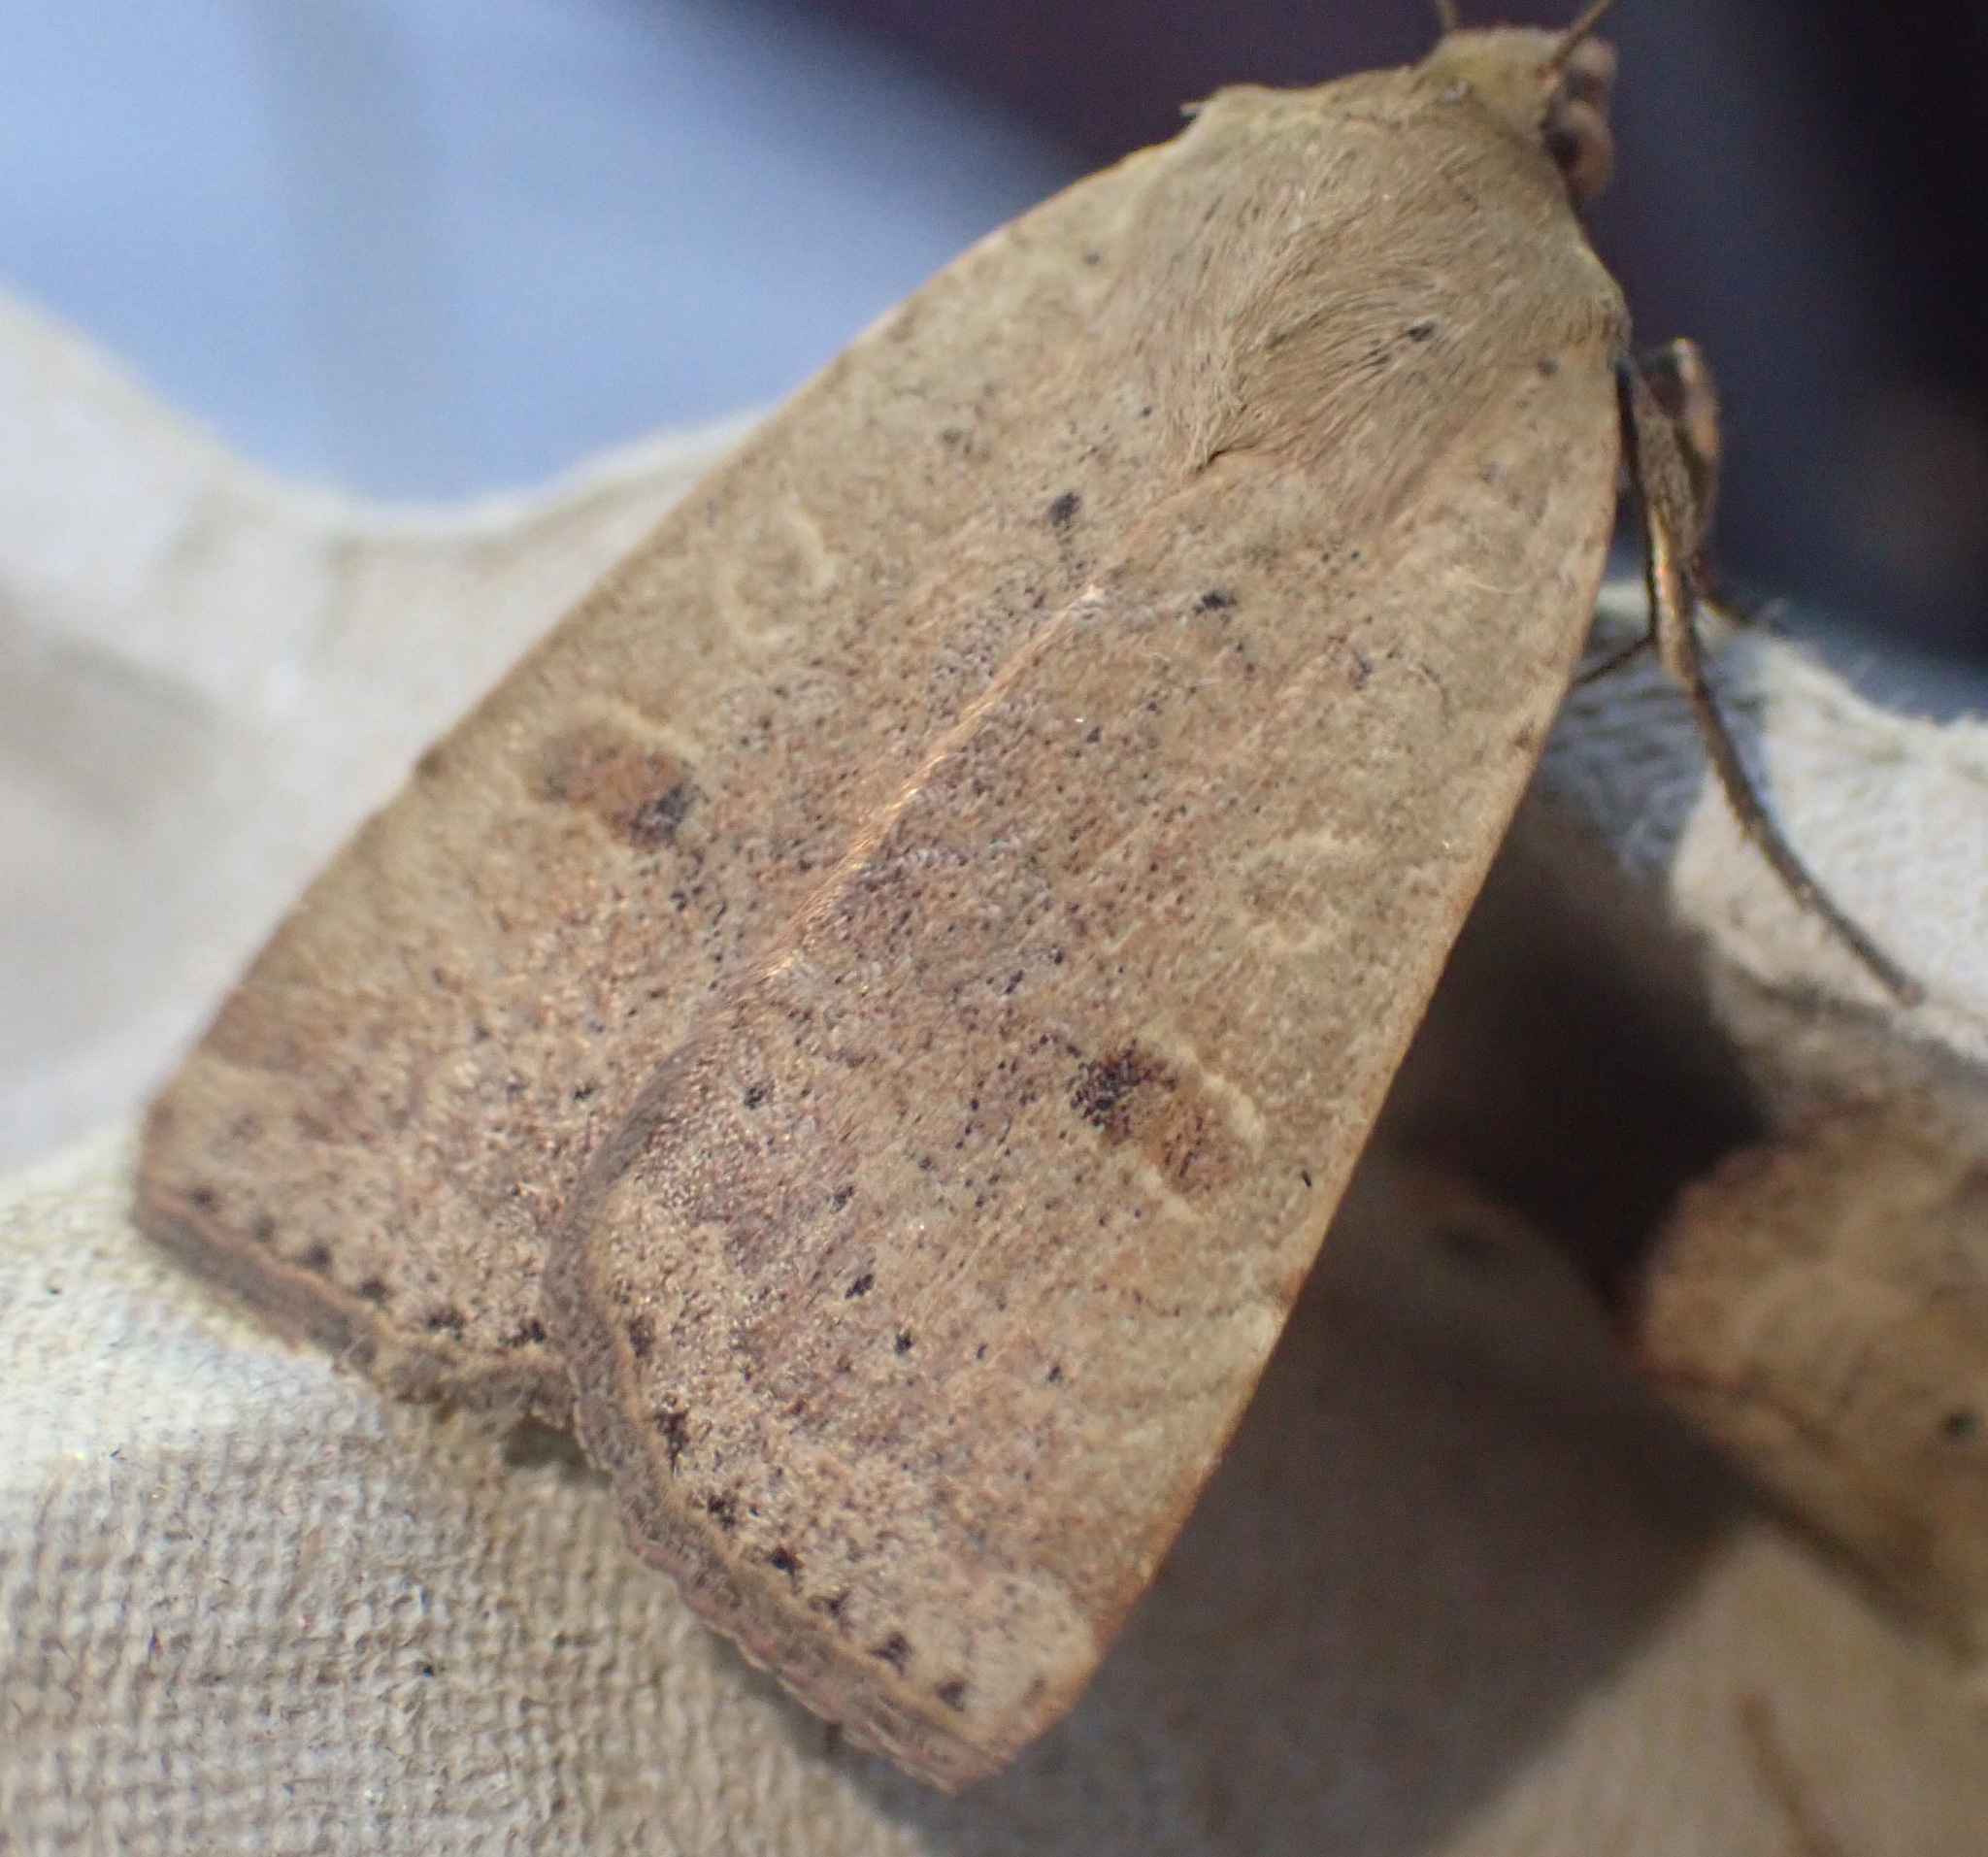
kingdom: Animalia
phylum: Arthropoda
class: Insecta
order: Lepidoptera
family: Noctuidae
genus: Noctua
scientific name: Noctua comes
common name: Lesser yellow underwing
